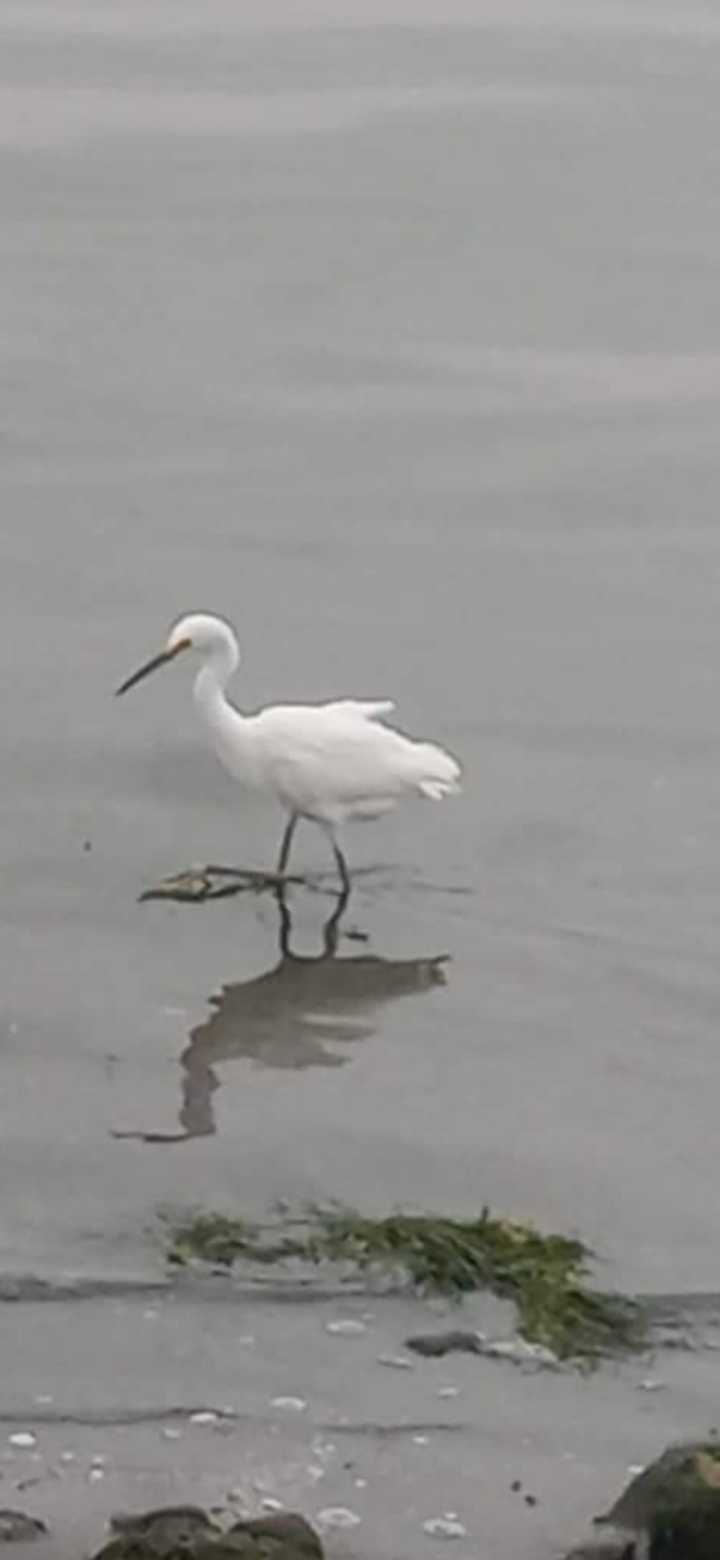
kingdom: Animalia
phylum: Chordata
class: Aves
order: Pelecaniformes
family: Ardeidae
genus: Egretta
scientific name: Egretta thula
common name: Snowy egret
